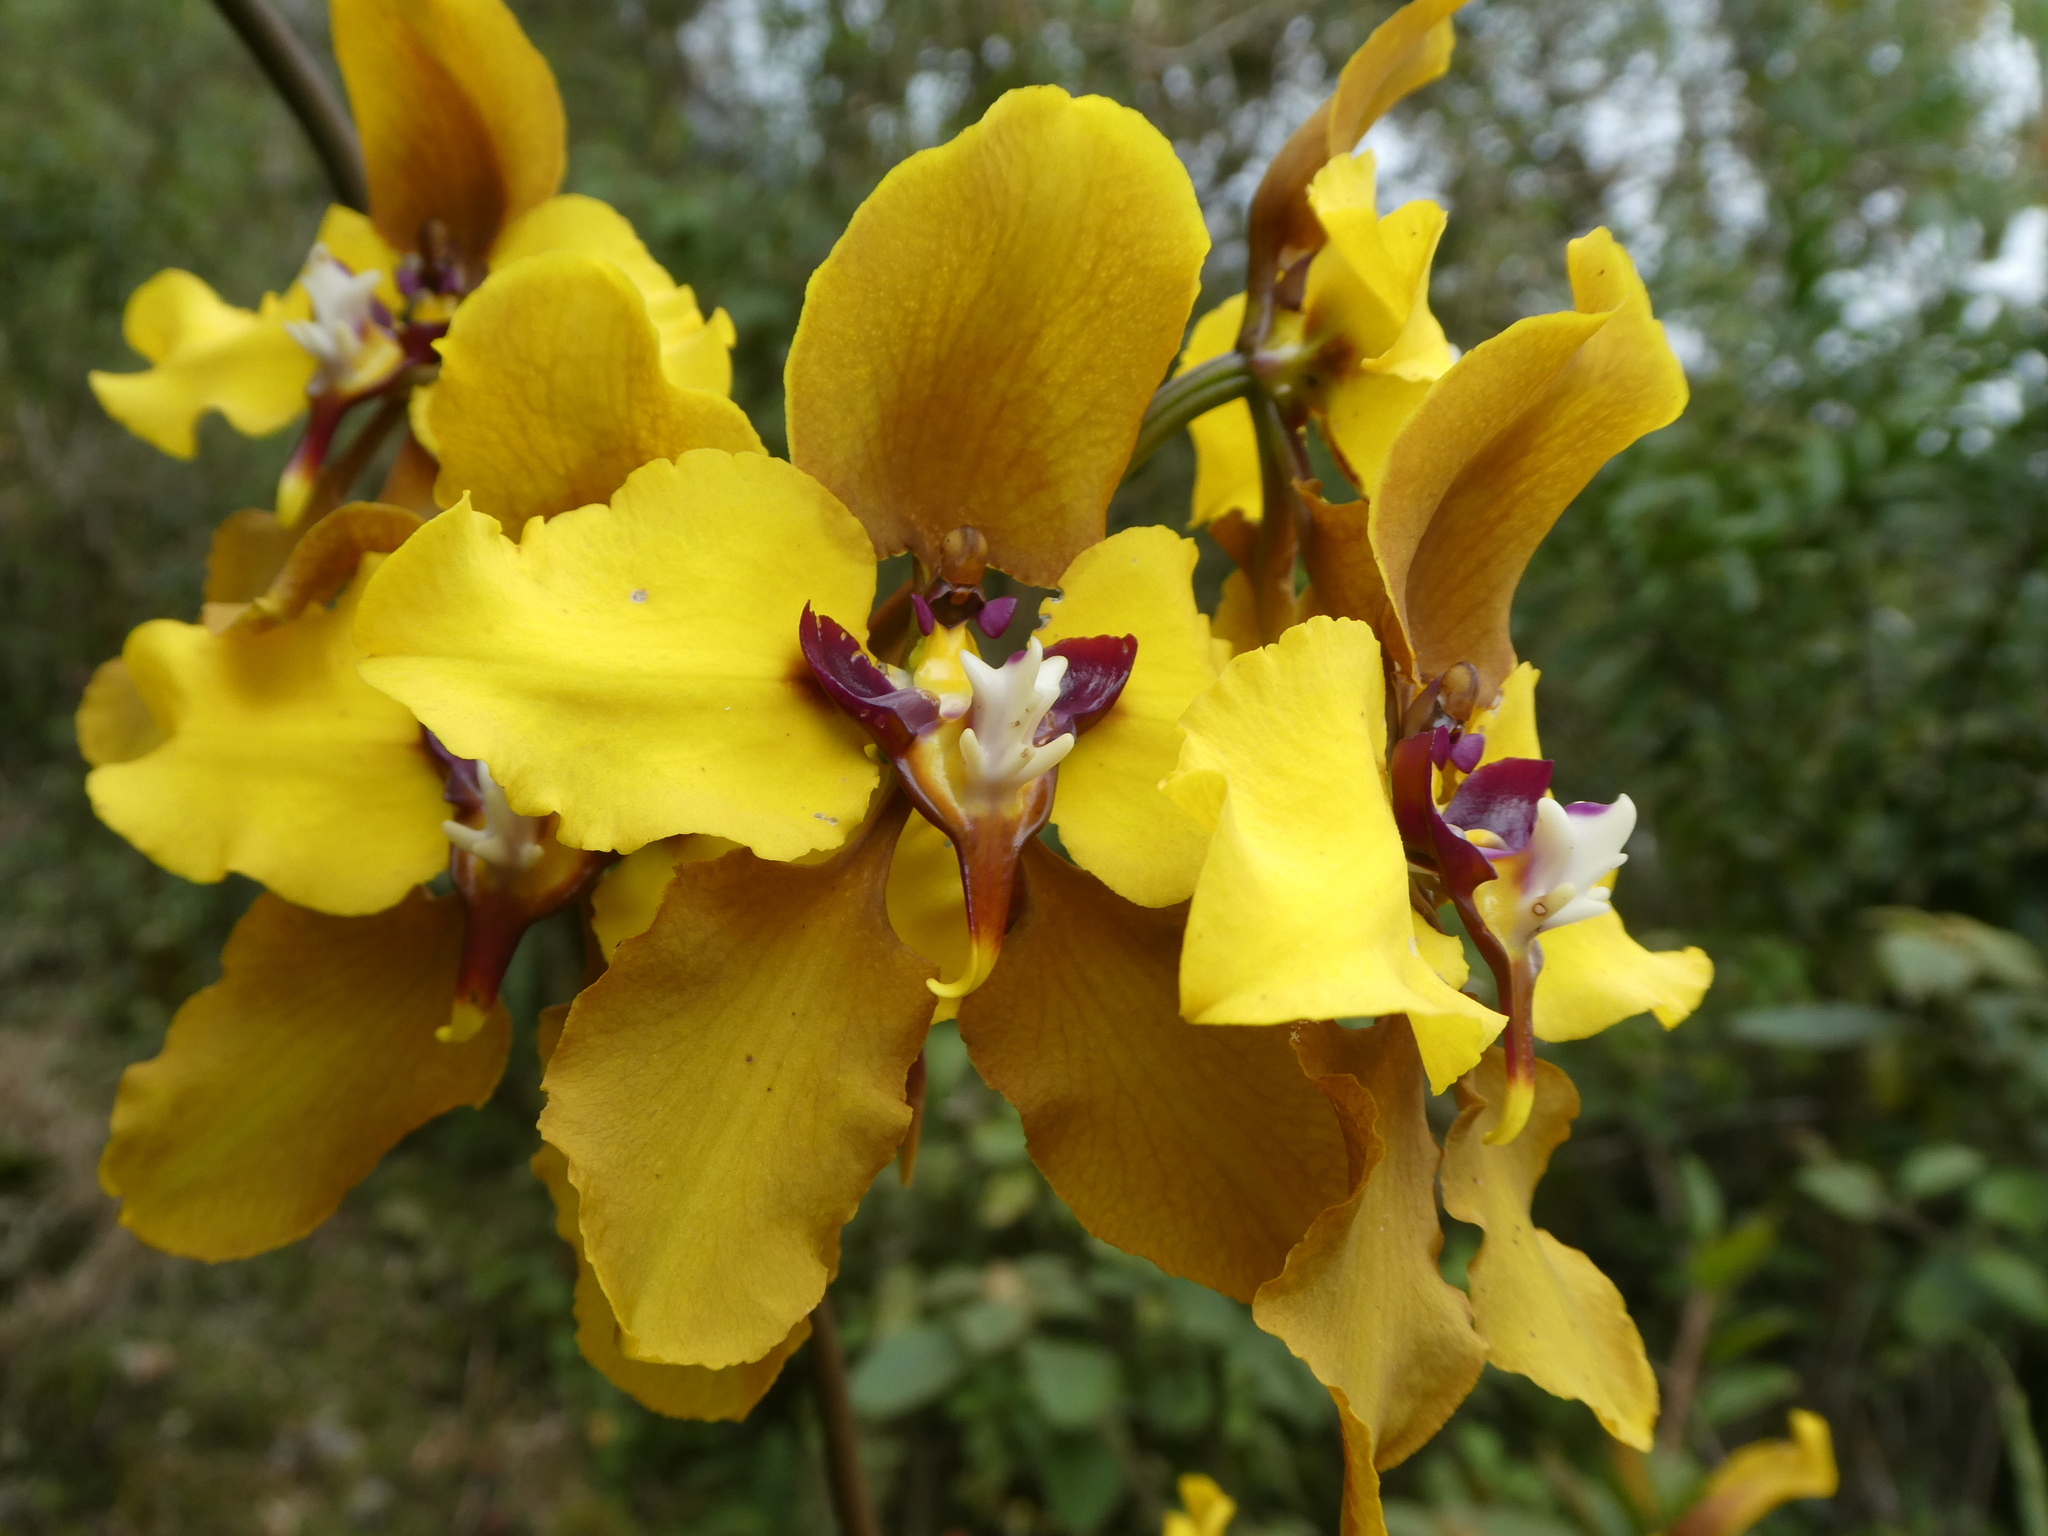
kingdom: Plantae
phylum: Tracheophyta
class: Liliopsida
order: Asparagales
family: Orchidaceae
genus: Cyrtochilum
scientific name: Cyrtochilum macranthum
